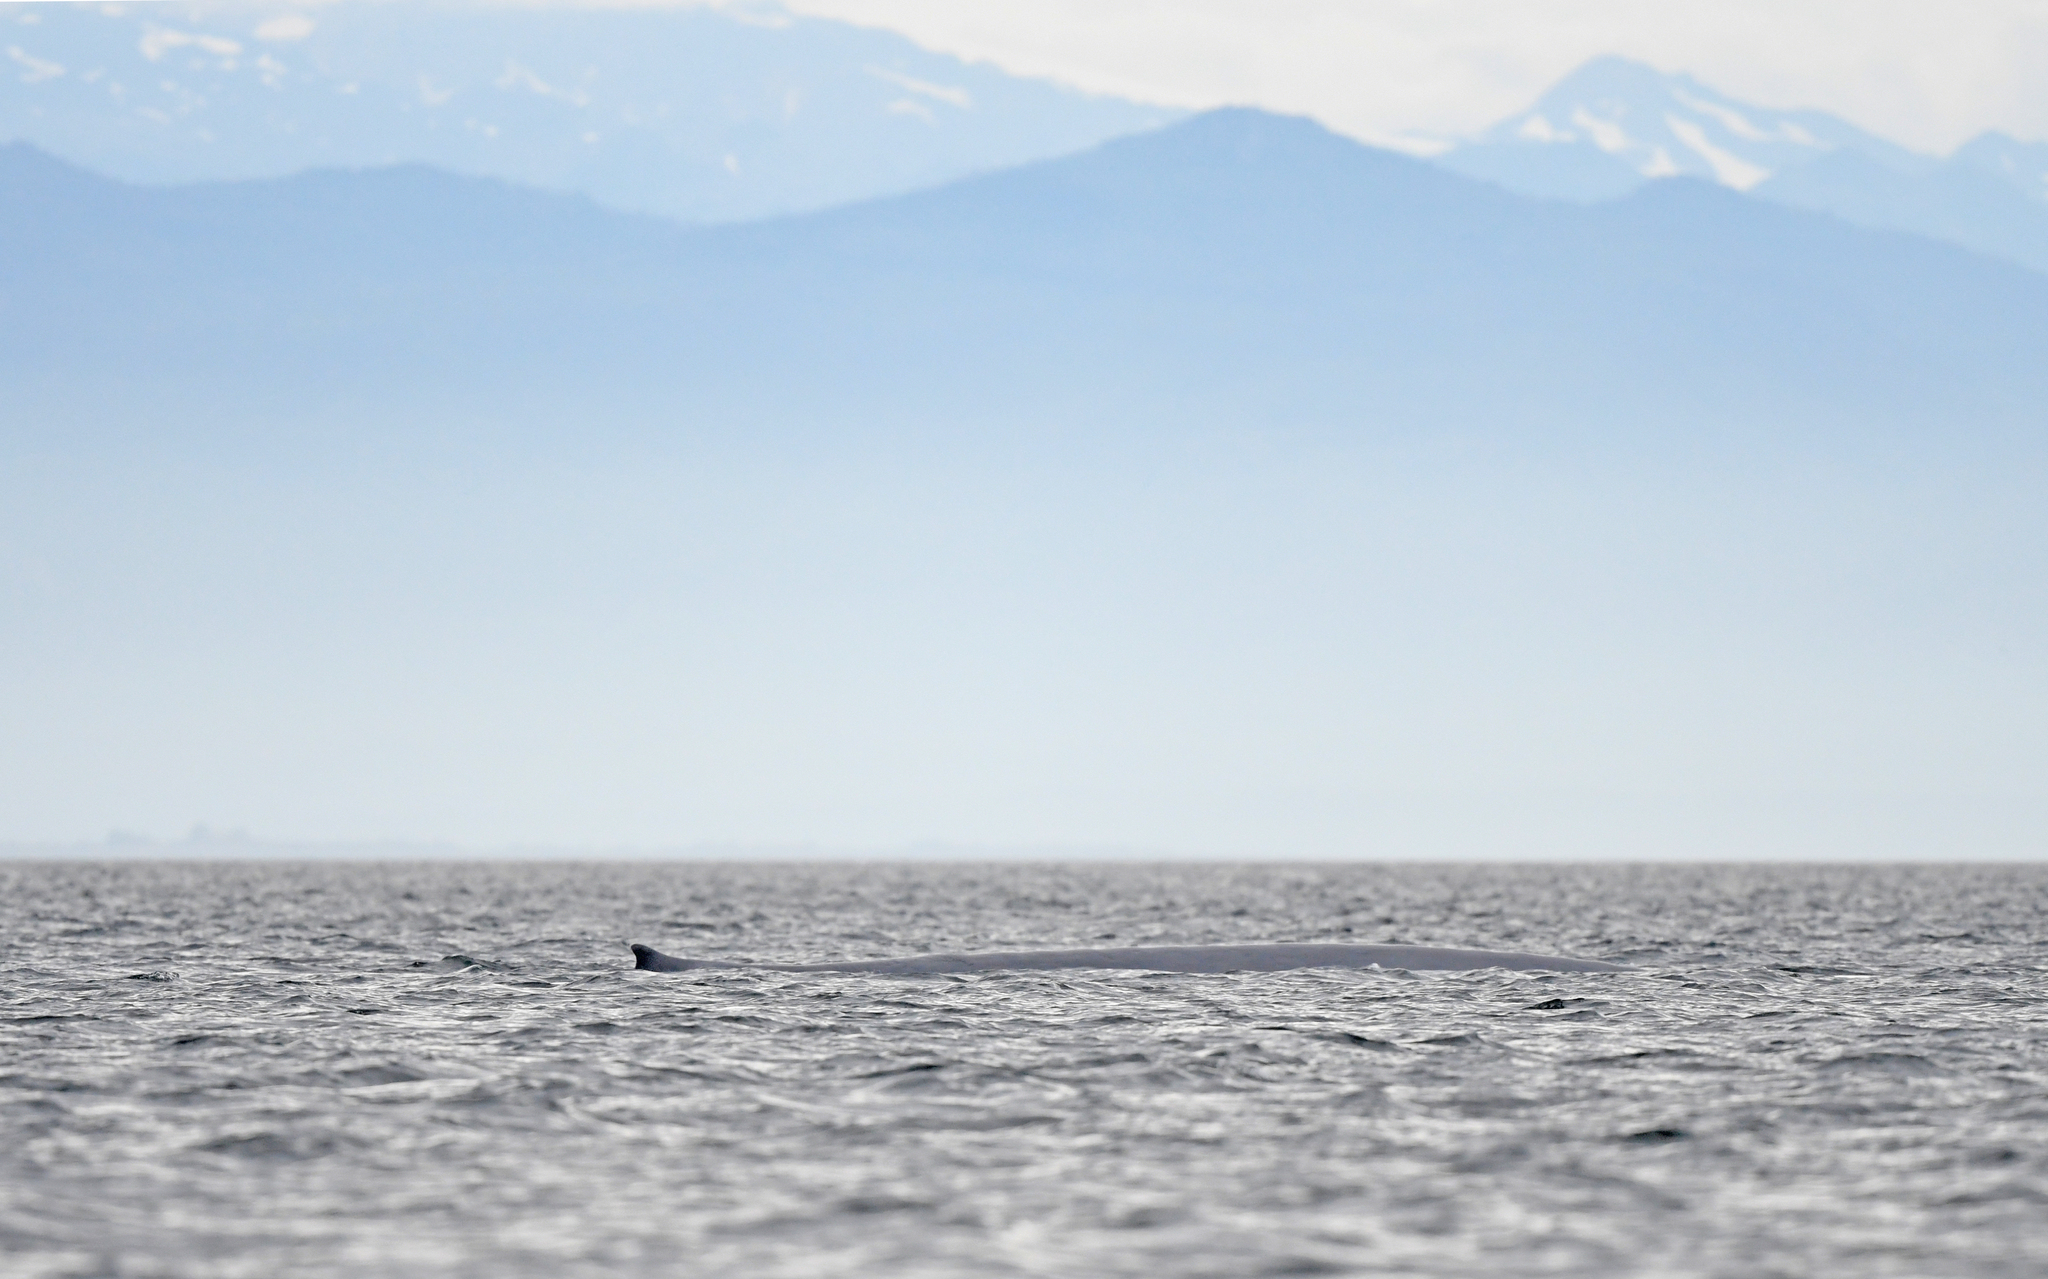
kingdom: Animalia
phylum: Chordata
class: Mammalia
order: Cetacea
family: Balaenopteridae
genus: Balaenoptera
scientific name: Balaenoptera musculus
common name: Blue whale
